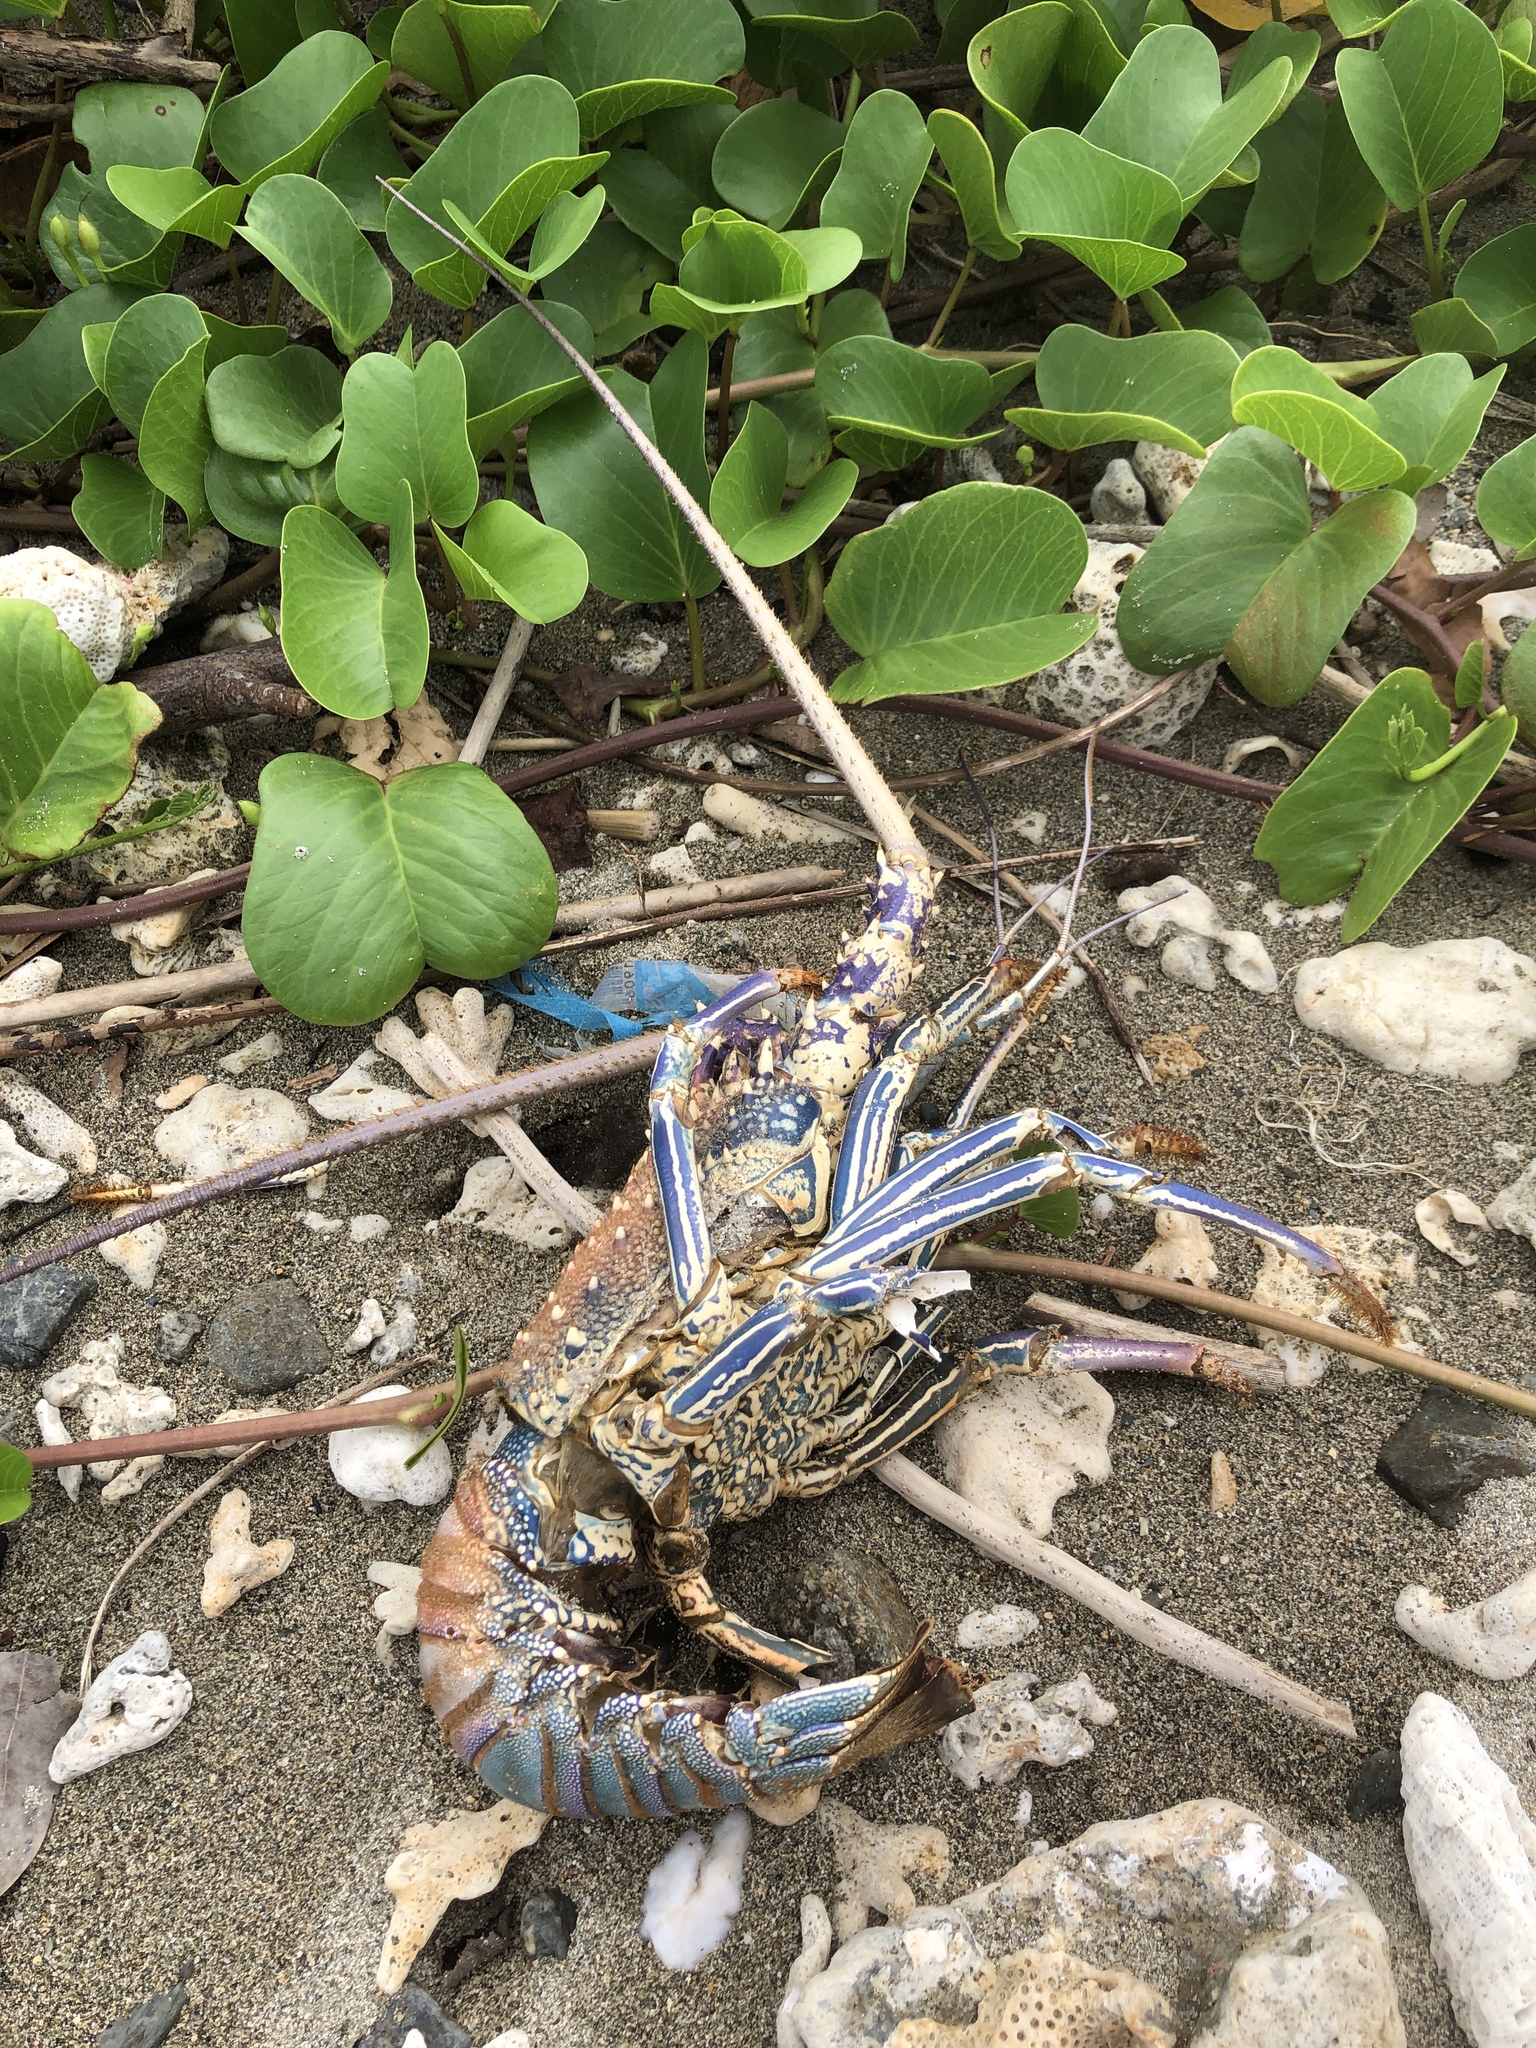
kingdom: Animalia
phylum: Arthropoda
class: Malacostraca
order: Decapoda
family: Palinuridae
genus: Panulirus
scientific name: Panulirus penicillatus
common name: Pronghorn spiny lobster
